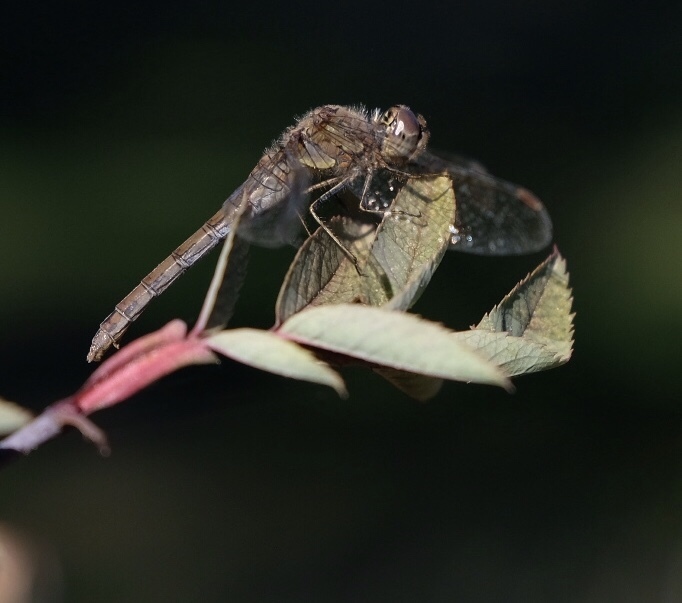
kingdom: Animalia
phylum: Arthropoda
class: Insecta
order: Odonata
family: Libellulidae
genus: Sympetrum
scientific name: Sympetrum striolatum
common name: Common darter
